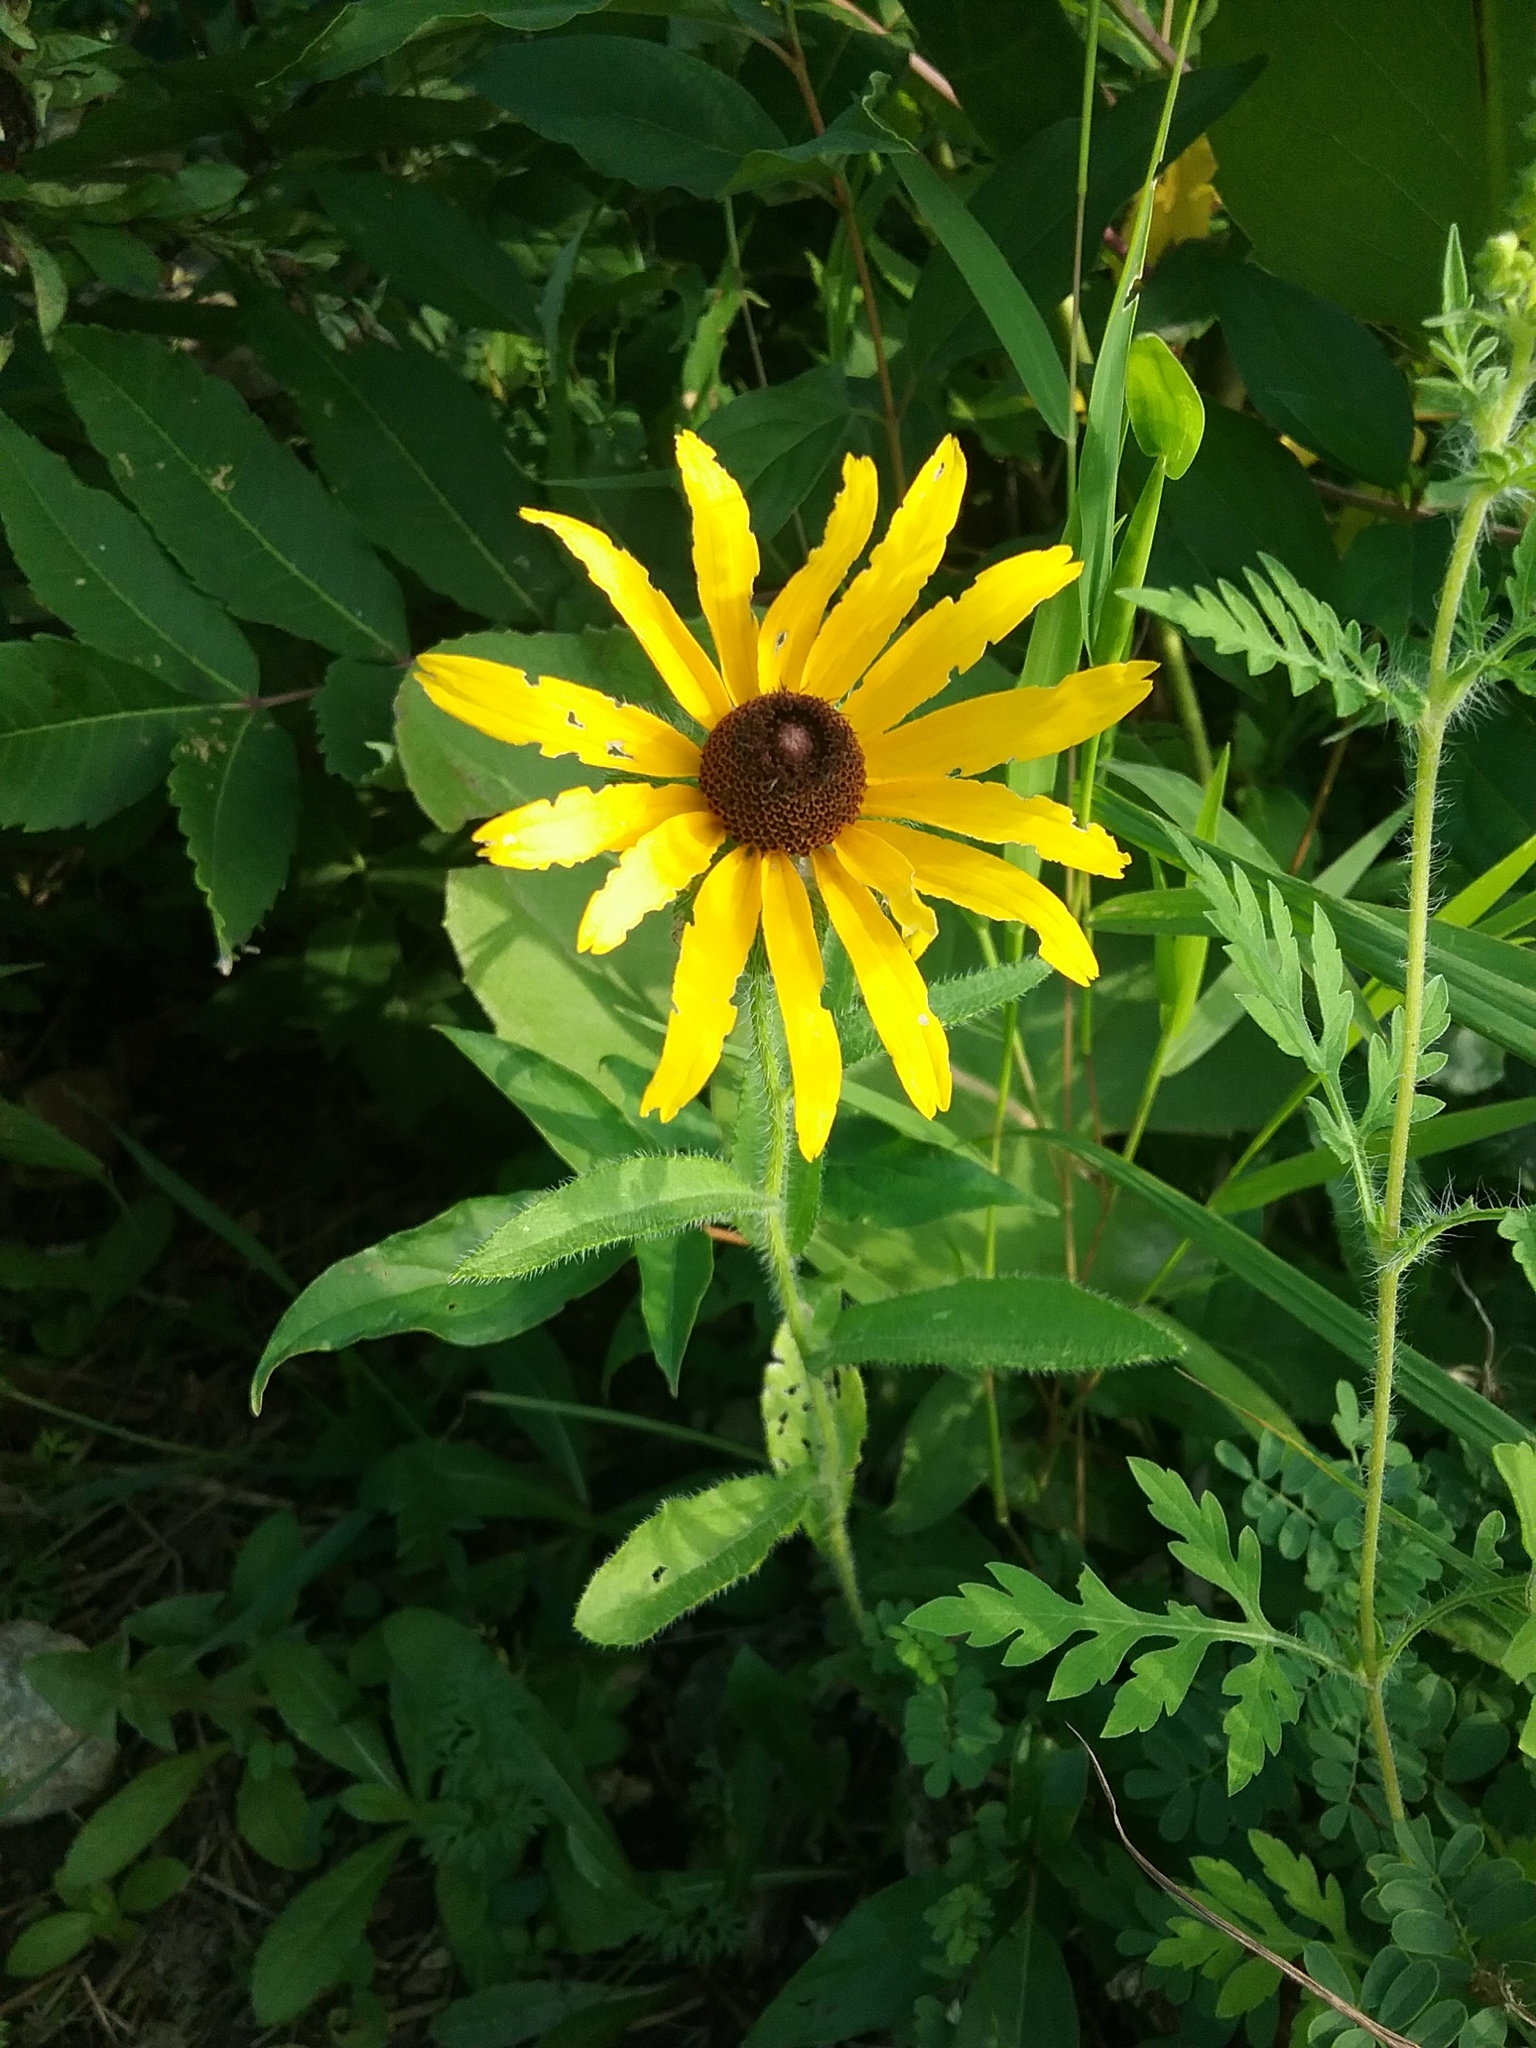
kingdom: Plantae
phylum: Tracheophyta
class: Magnoliopsida
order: Asterales
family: Asteraceae
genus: Rudbeckia
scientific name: Rudbeckia hirta
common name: Black-eyed-susan
